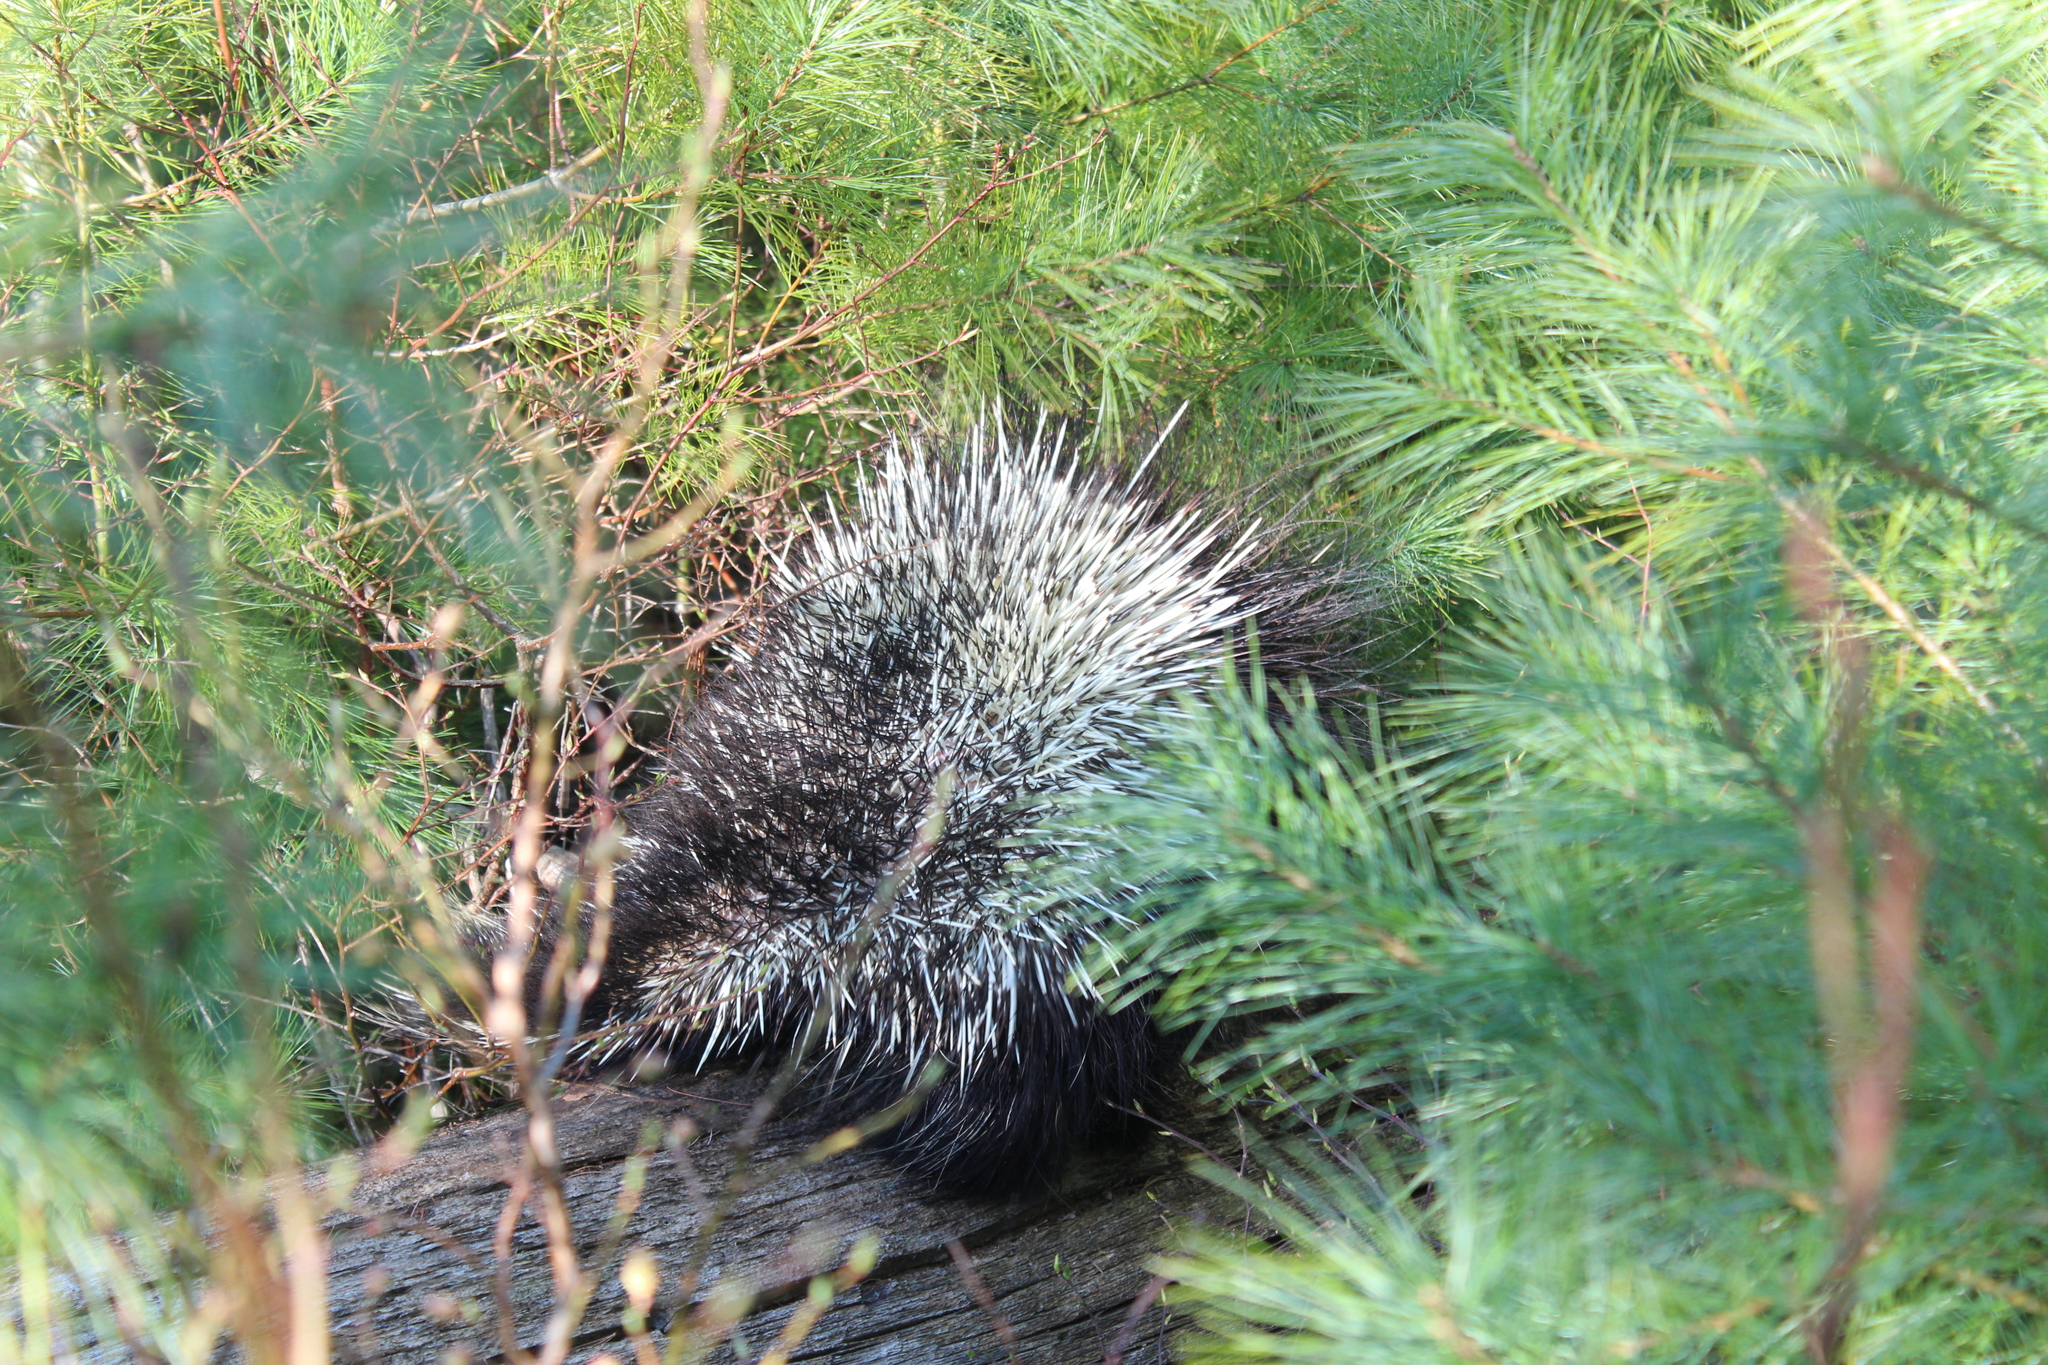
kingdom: Animalia
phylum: Chordata
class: Mammalia
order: Rodentia
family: Erethizontidae
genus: Erethizon
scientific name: Erethizon dorsatus
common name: North american porcupine
